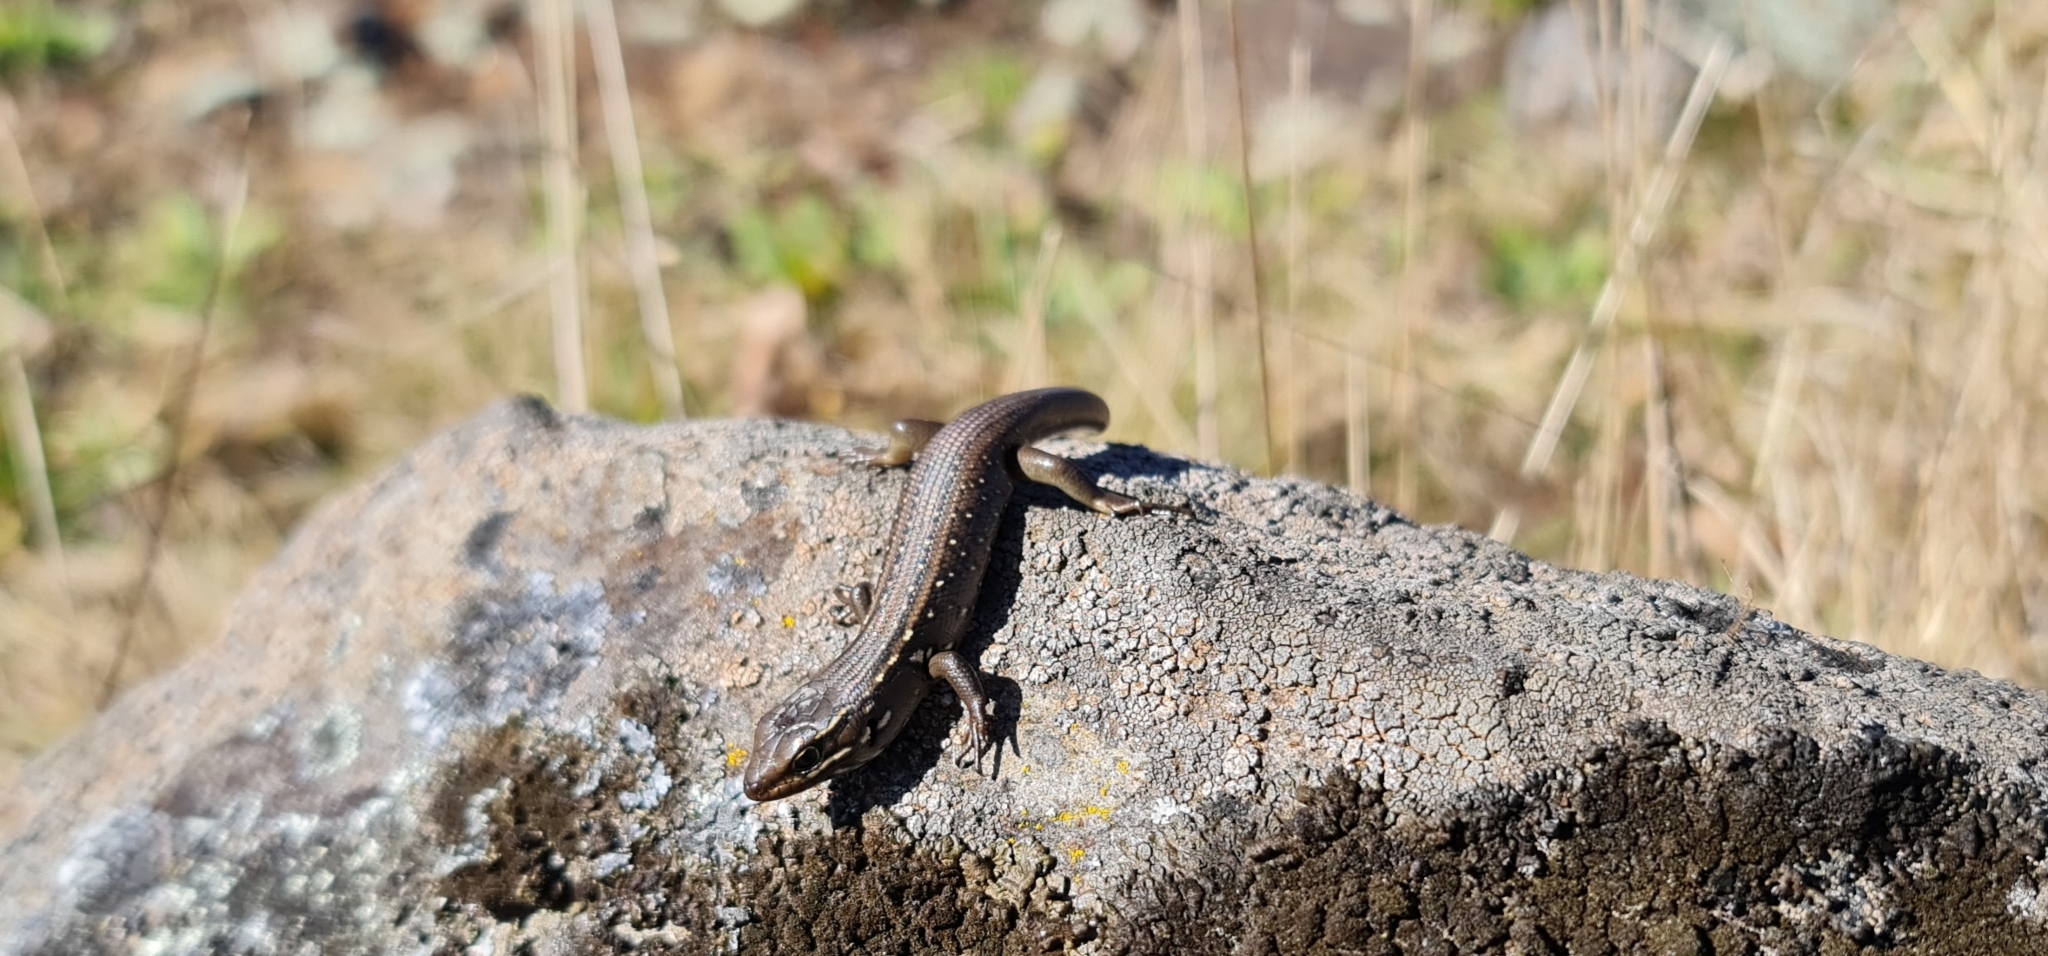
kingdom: Animalia
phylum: Chordata
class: Squamata
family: Scincidae
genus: Liopholis
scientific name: Liopholis whitii
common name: White's rock-skink
